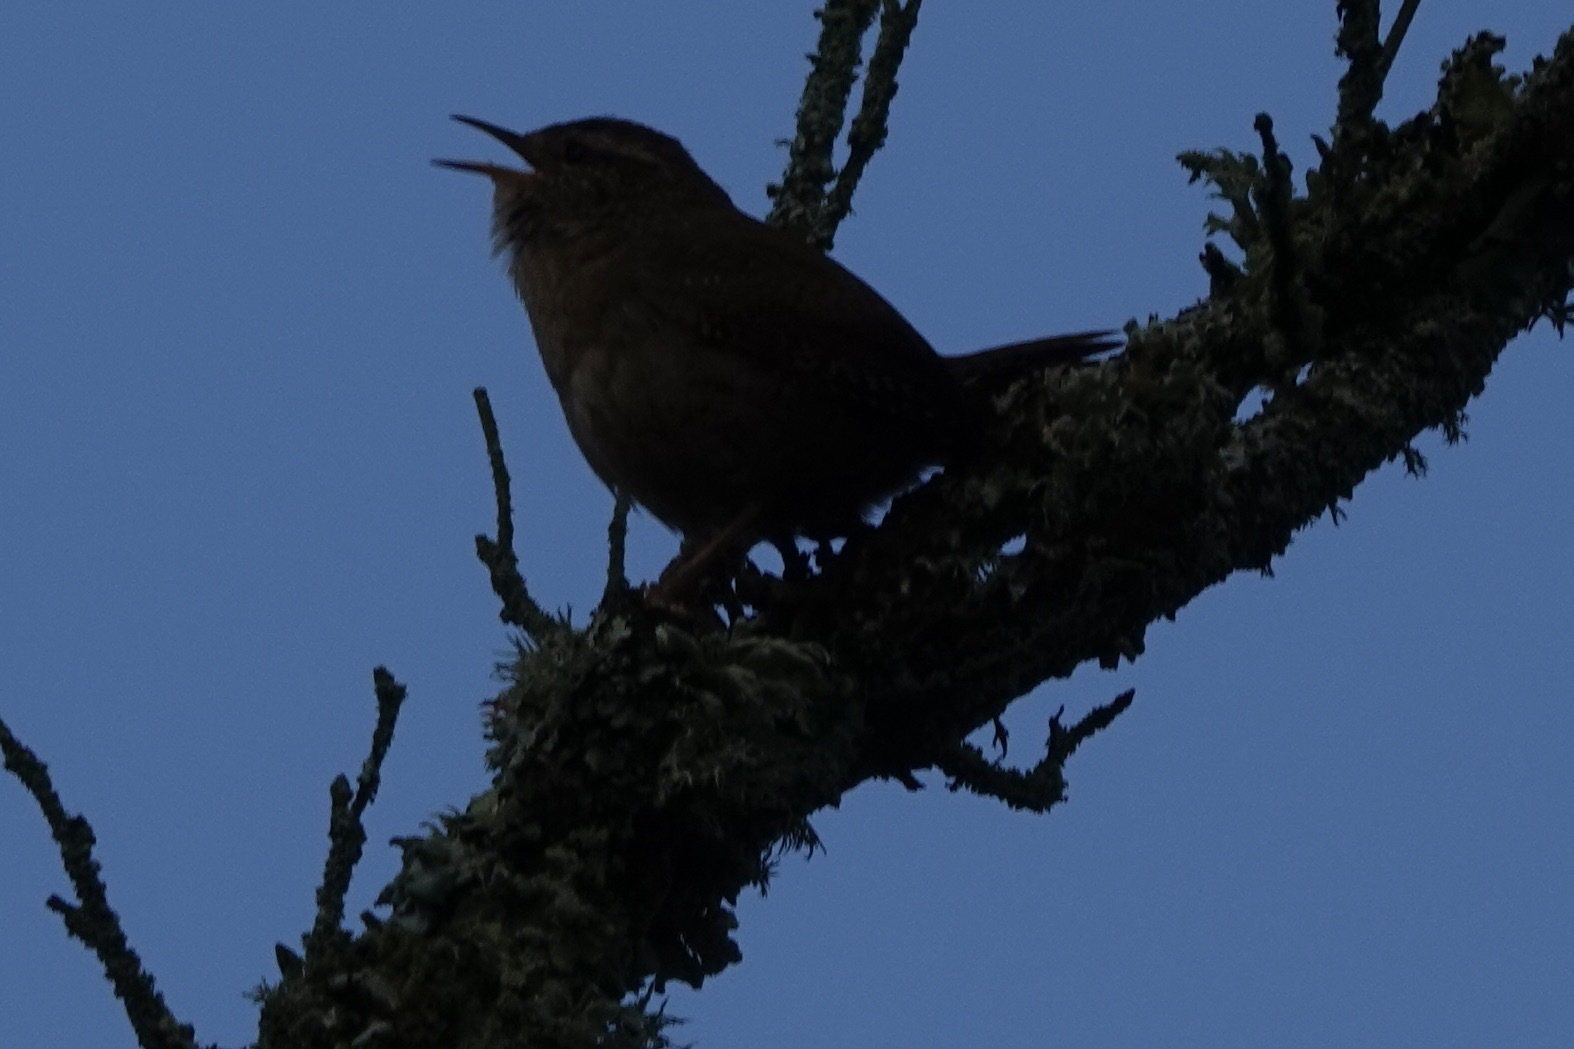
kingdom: Animalia
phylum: Chordata
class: Aves
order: Passeriformes
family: Troglodytidae
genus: Troglodytes
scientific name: Troglodytes troglodytes
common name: Eurasian wren
